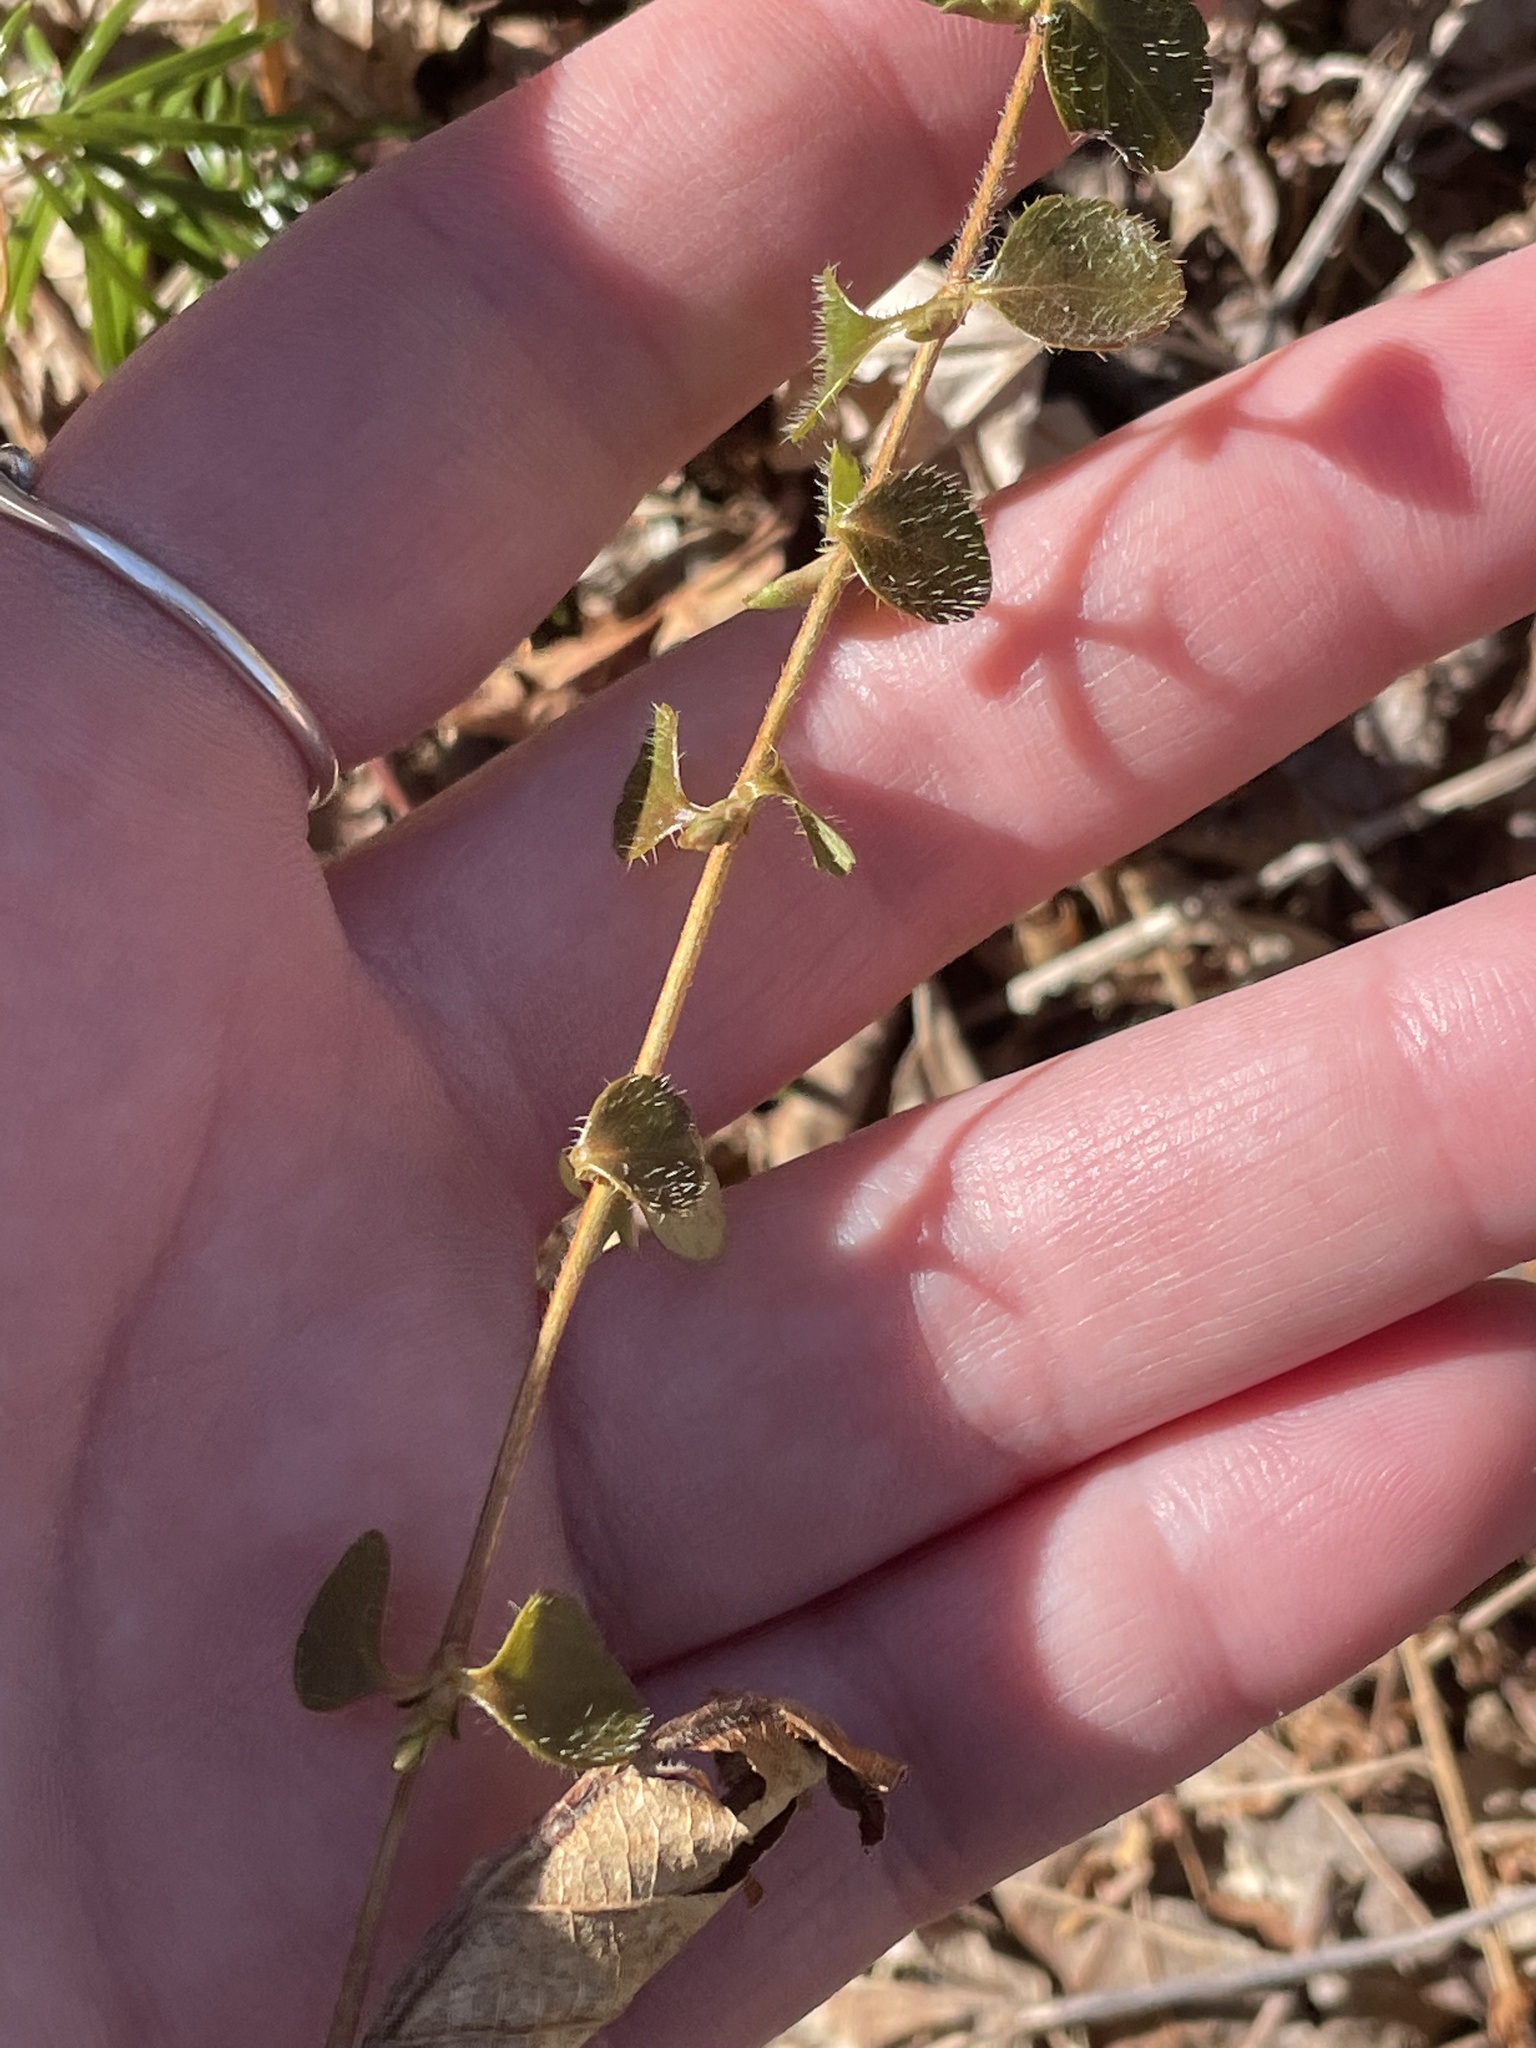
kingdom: Plantae
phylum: Tracheophyta
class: Magnoliopsida
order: Dipsacales
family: Caprifoliaceae
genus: Linnaea
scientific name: Linnaea borealis
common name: Twinflower
